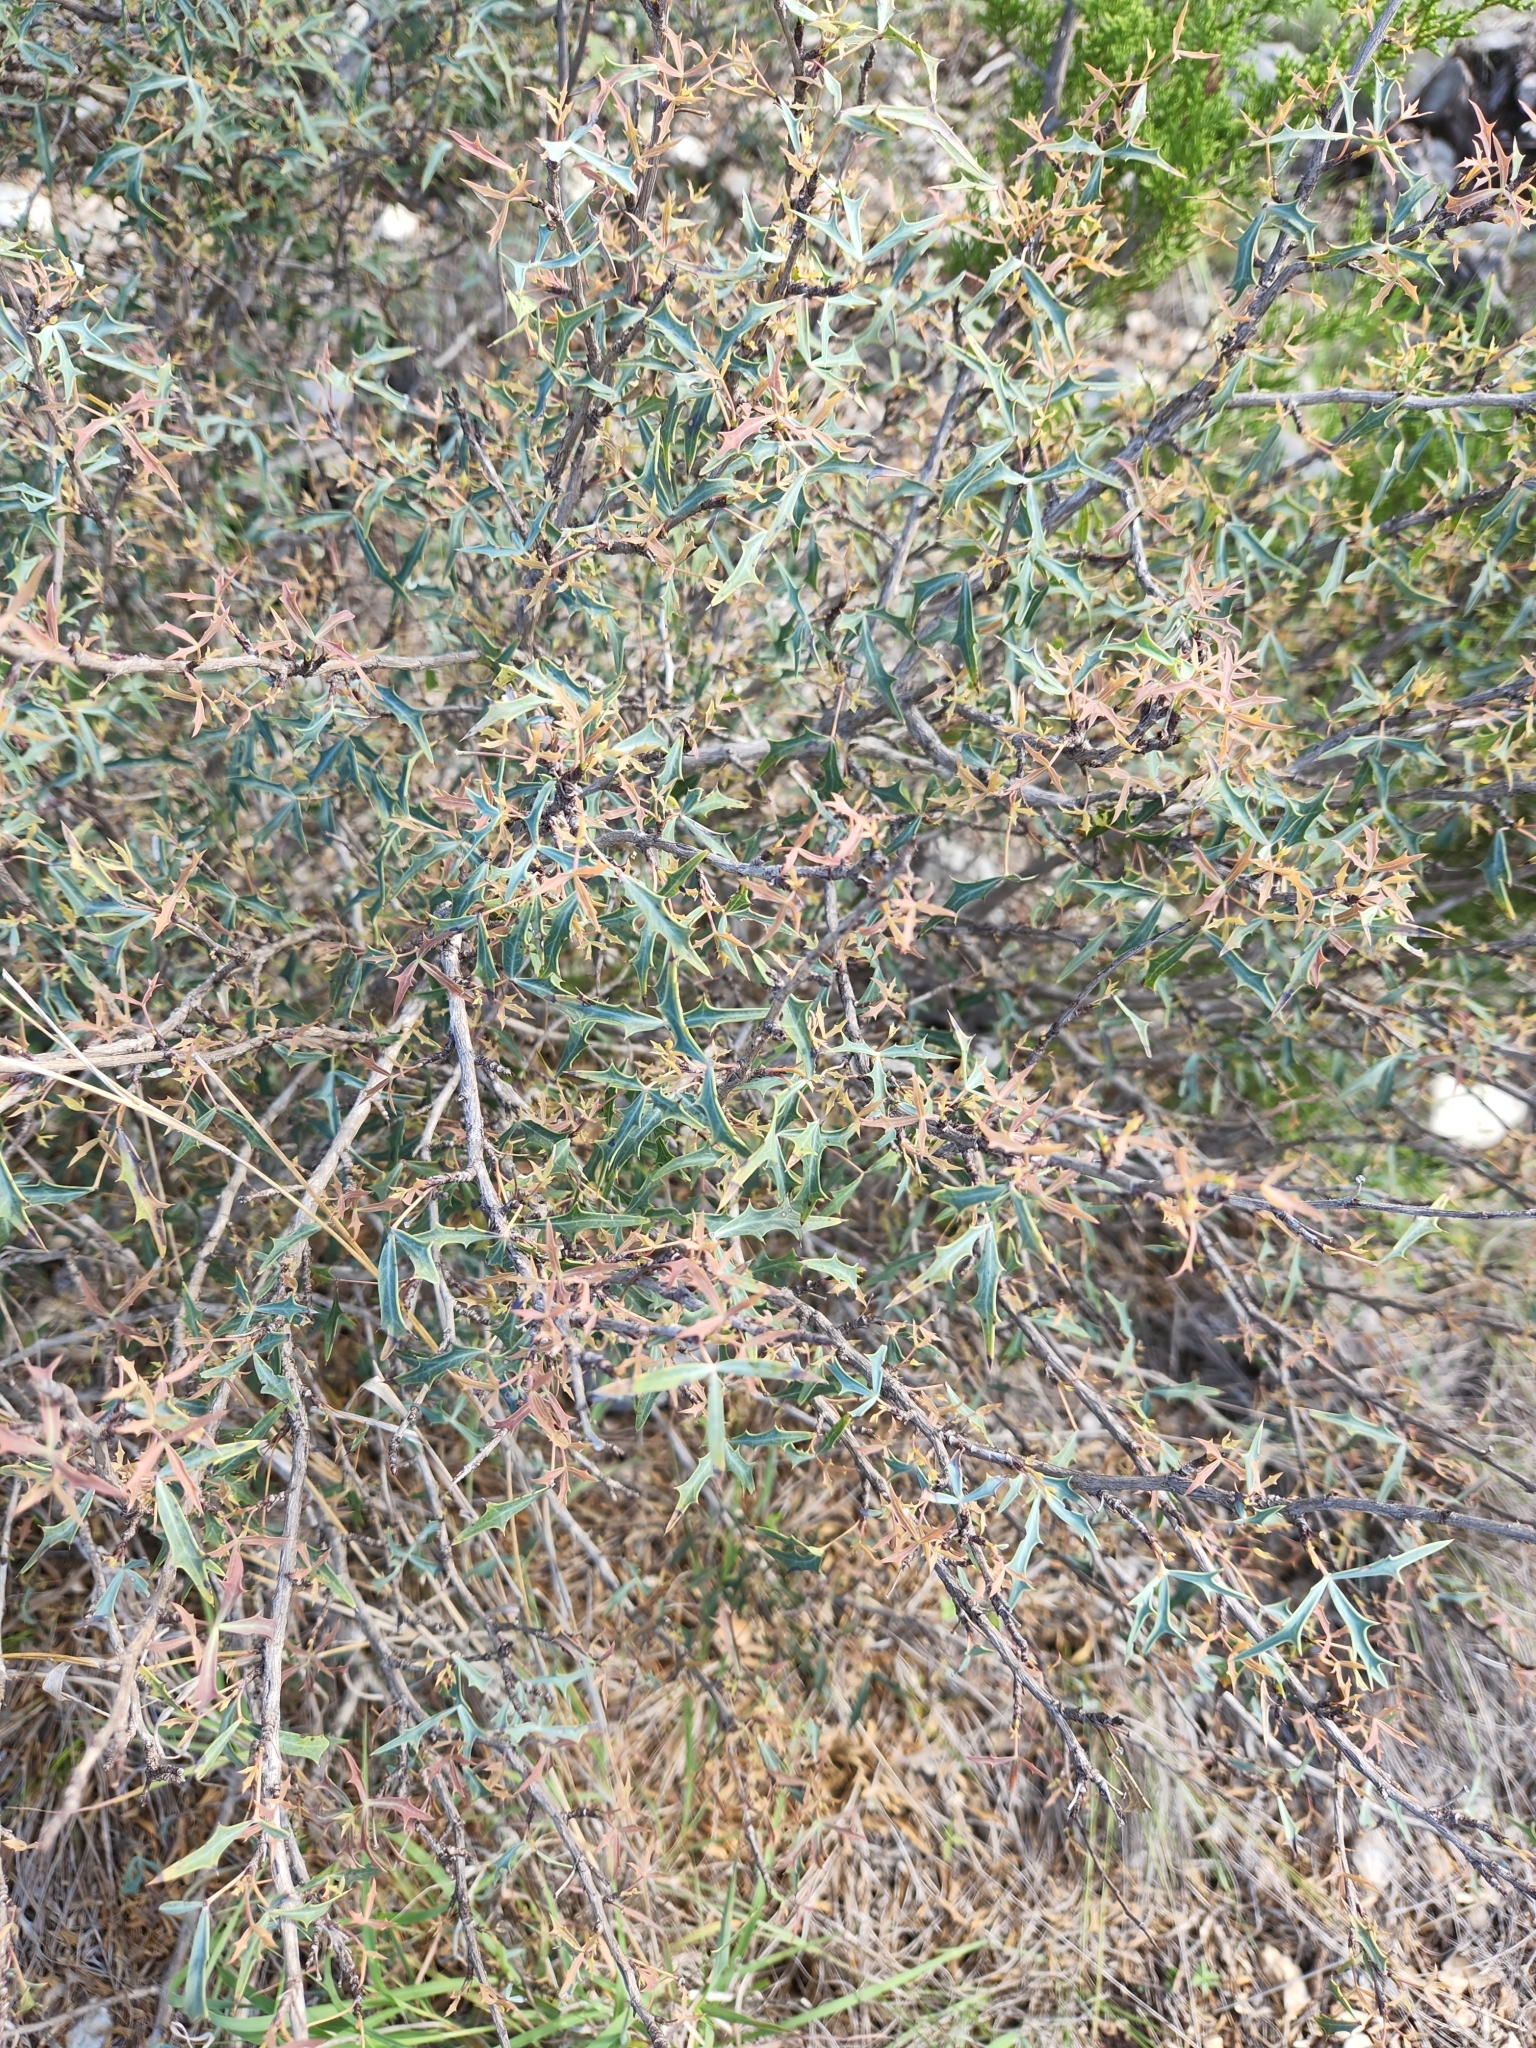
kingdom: Plantae
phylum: Tracheophyta
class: Magnoliopsida
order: Ranunculales
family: Berberidaceae
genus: Alloberberis
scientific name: Alloberberis trifoliolata
